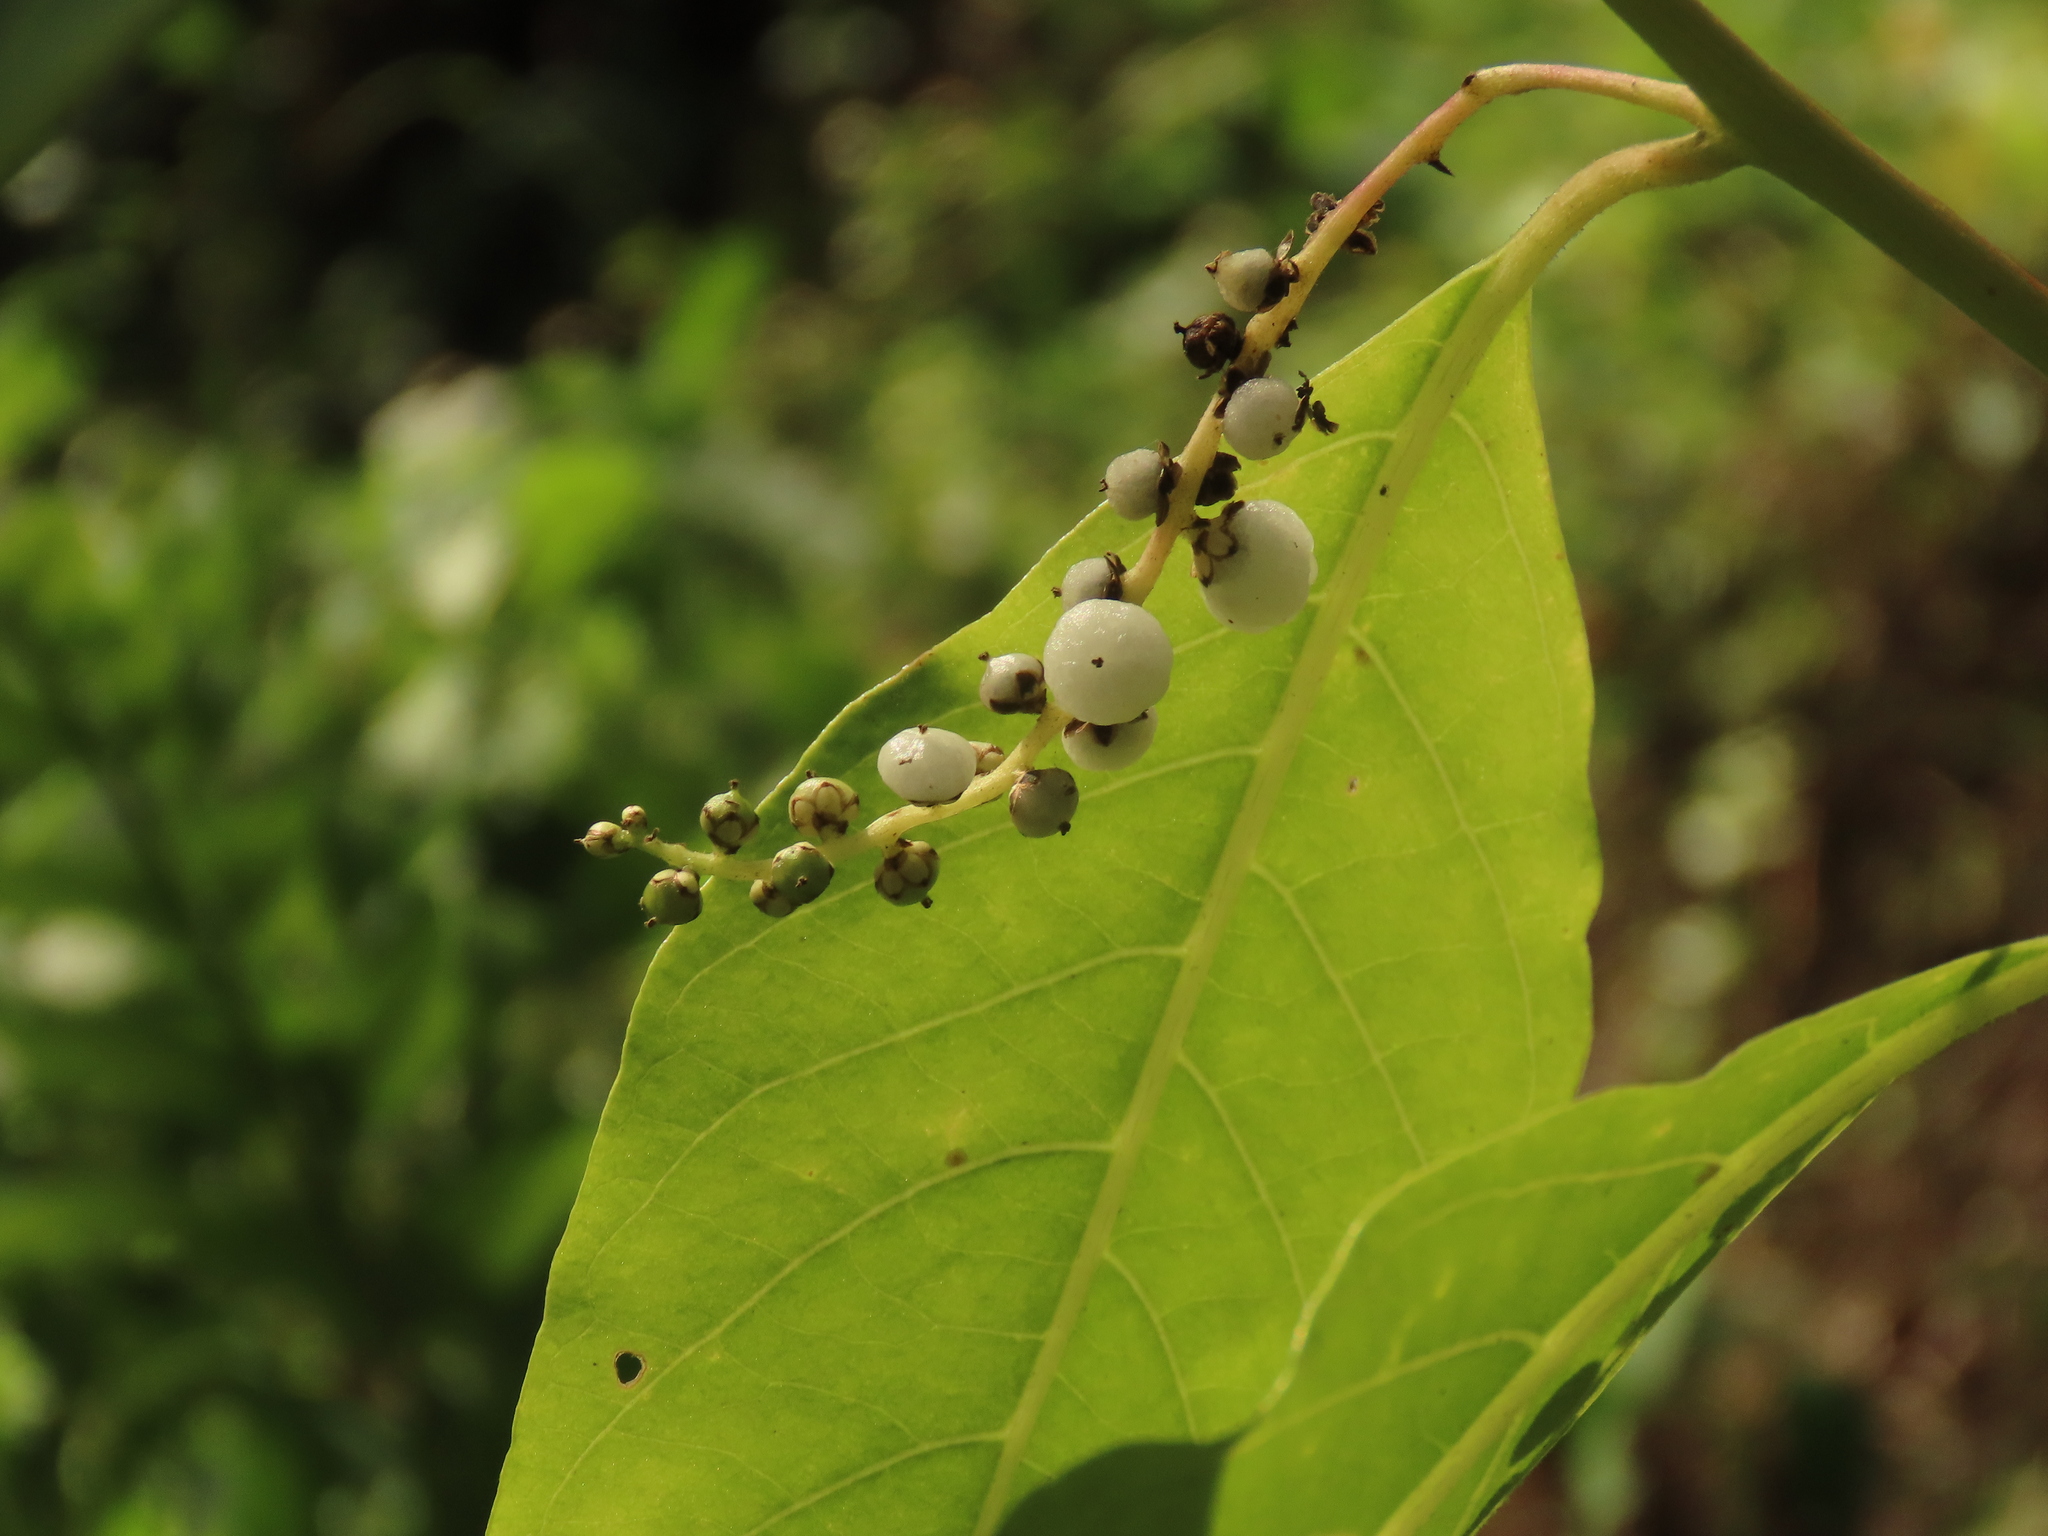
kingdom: Plantae
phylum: Tracheophyta
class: Magnoliopsida
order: Caryophyllales
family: Amaranthaceae
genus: Deeringia
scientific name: Deeringia polysperma
